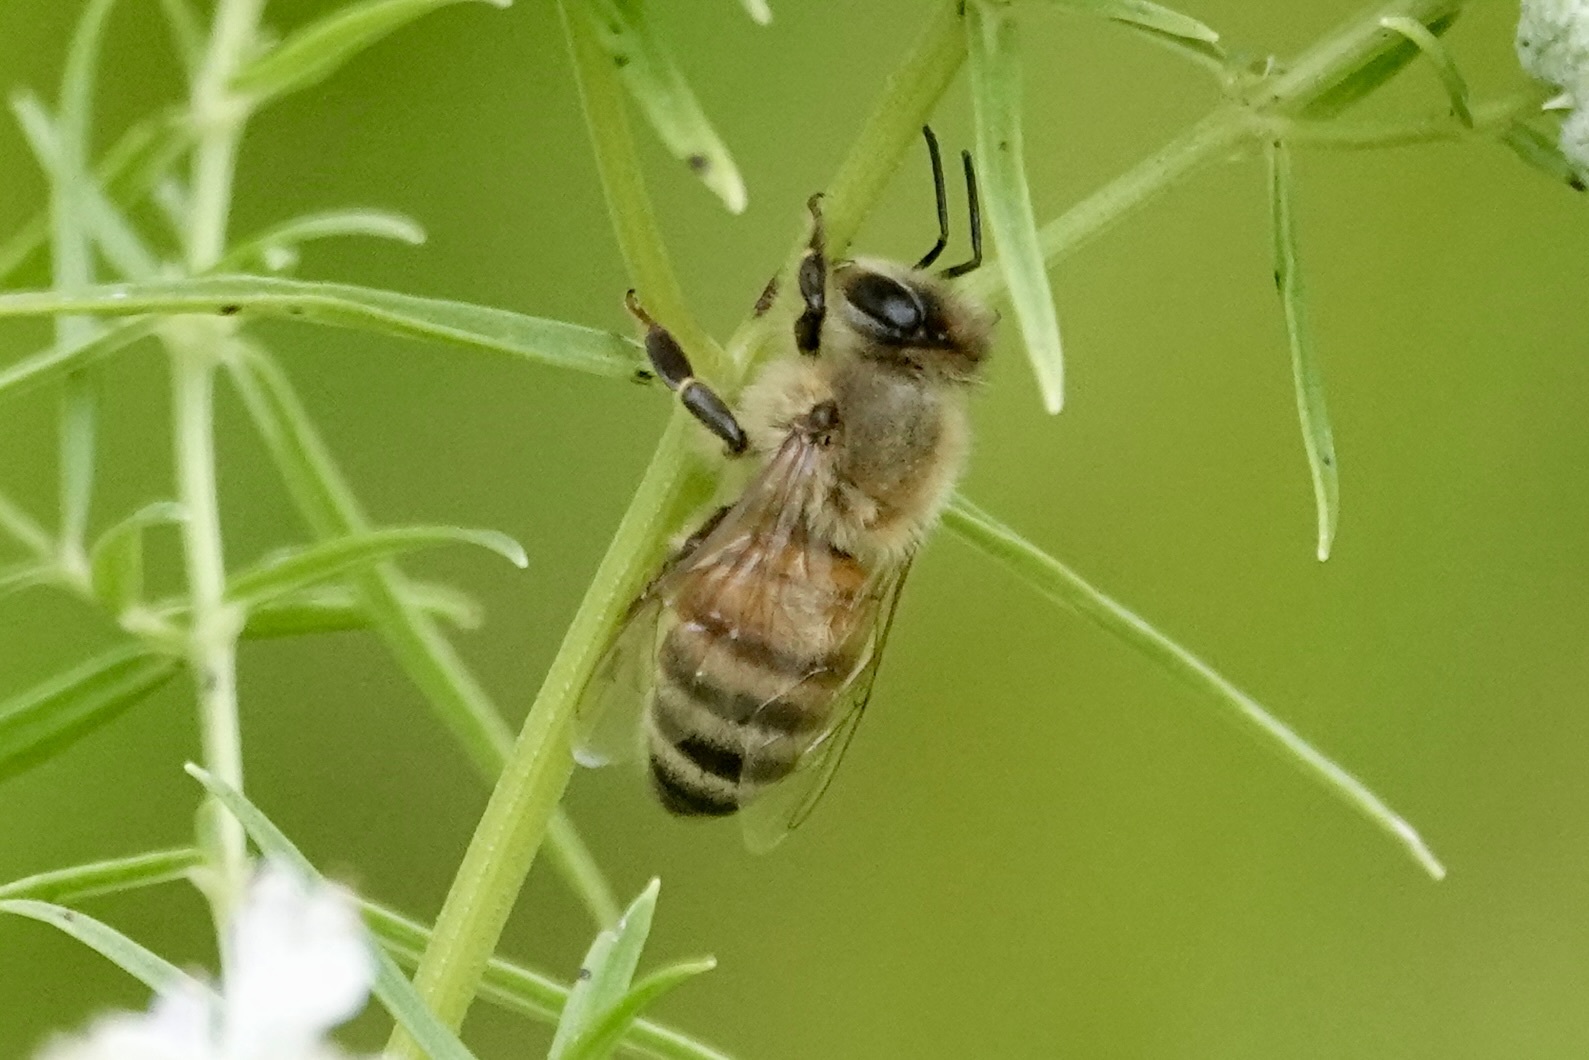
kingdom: Animalia
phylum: Arthropoda
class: Insecta
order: Hymenoptera
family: Apidae
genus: Apis
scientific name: Apis mellifera
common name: Honey bee
